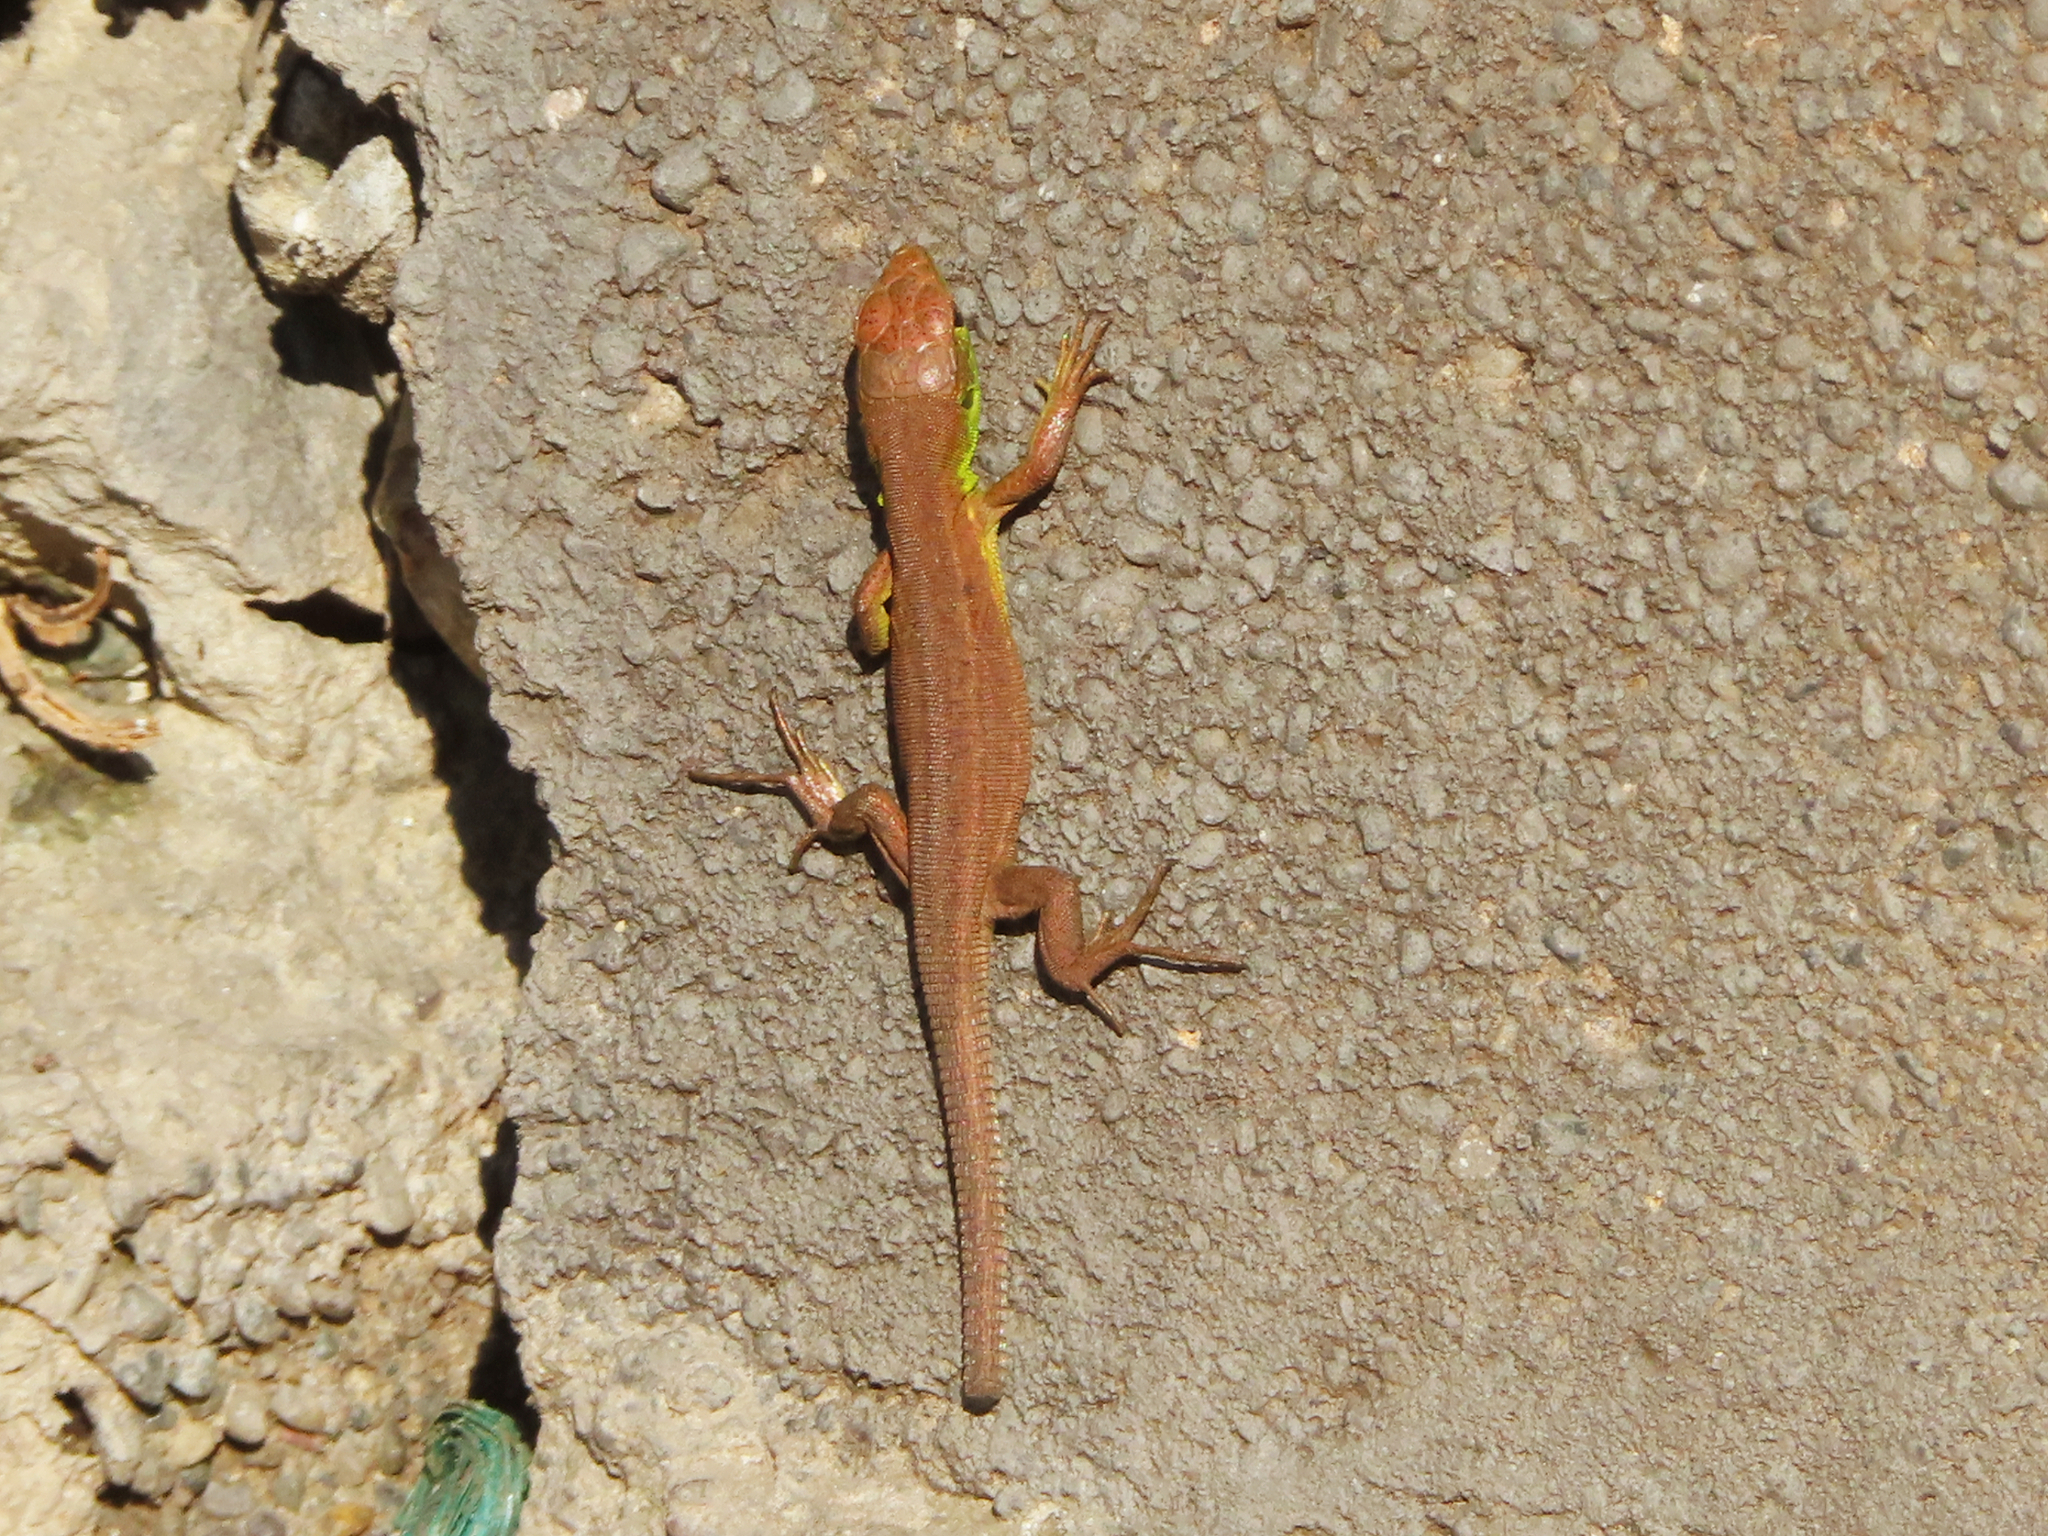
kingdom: Animalia
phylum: Chordata
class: Squamata
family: Lacertidae
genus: Lacerta
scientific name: Lacerta viridis
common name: European green lizard
